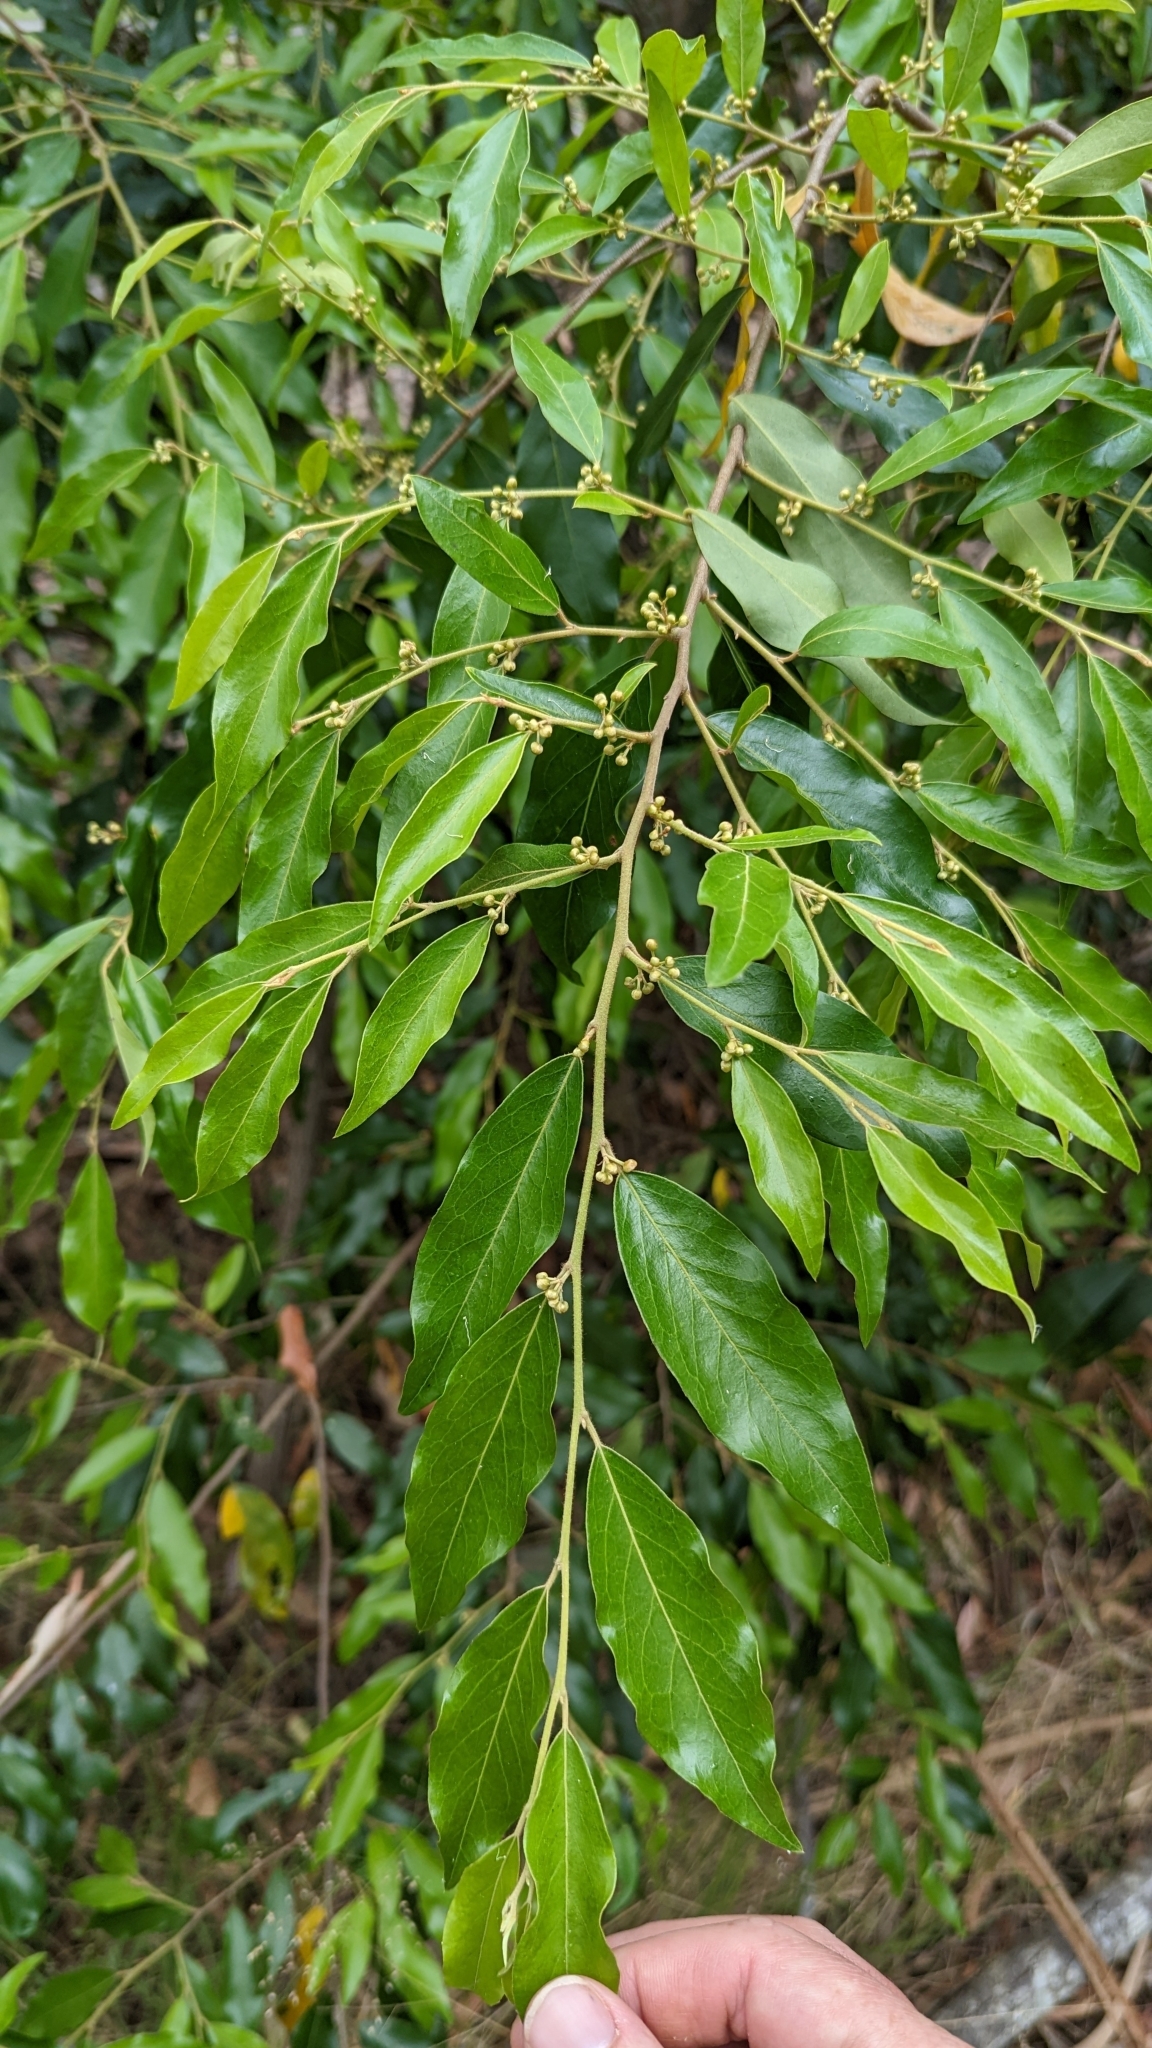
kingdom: Plantae
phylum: Tracheophyta
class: Magnoliopsida
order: Malpighiales
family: Picrodendraceae
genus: Petalostigma
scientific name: Petalostigma triloculare
